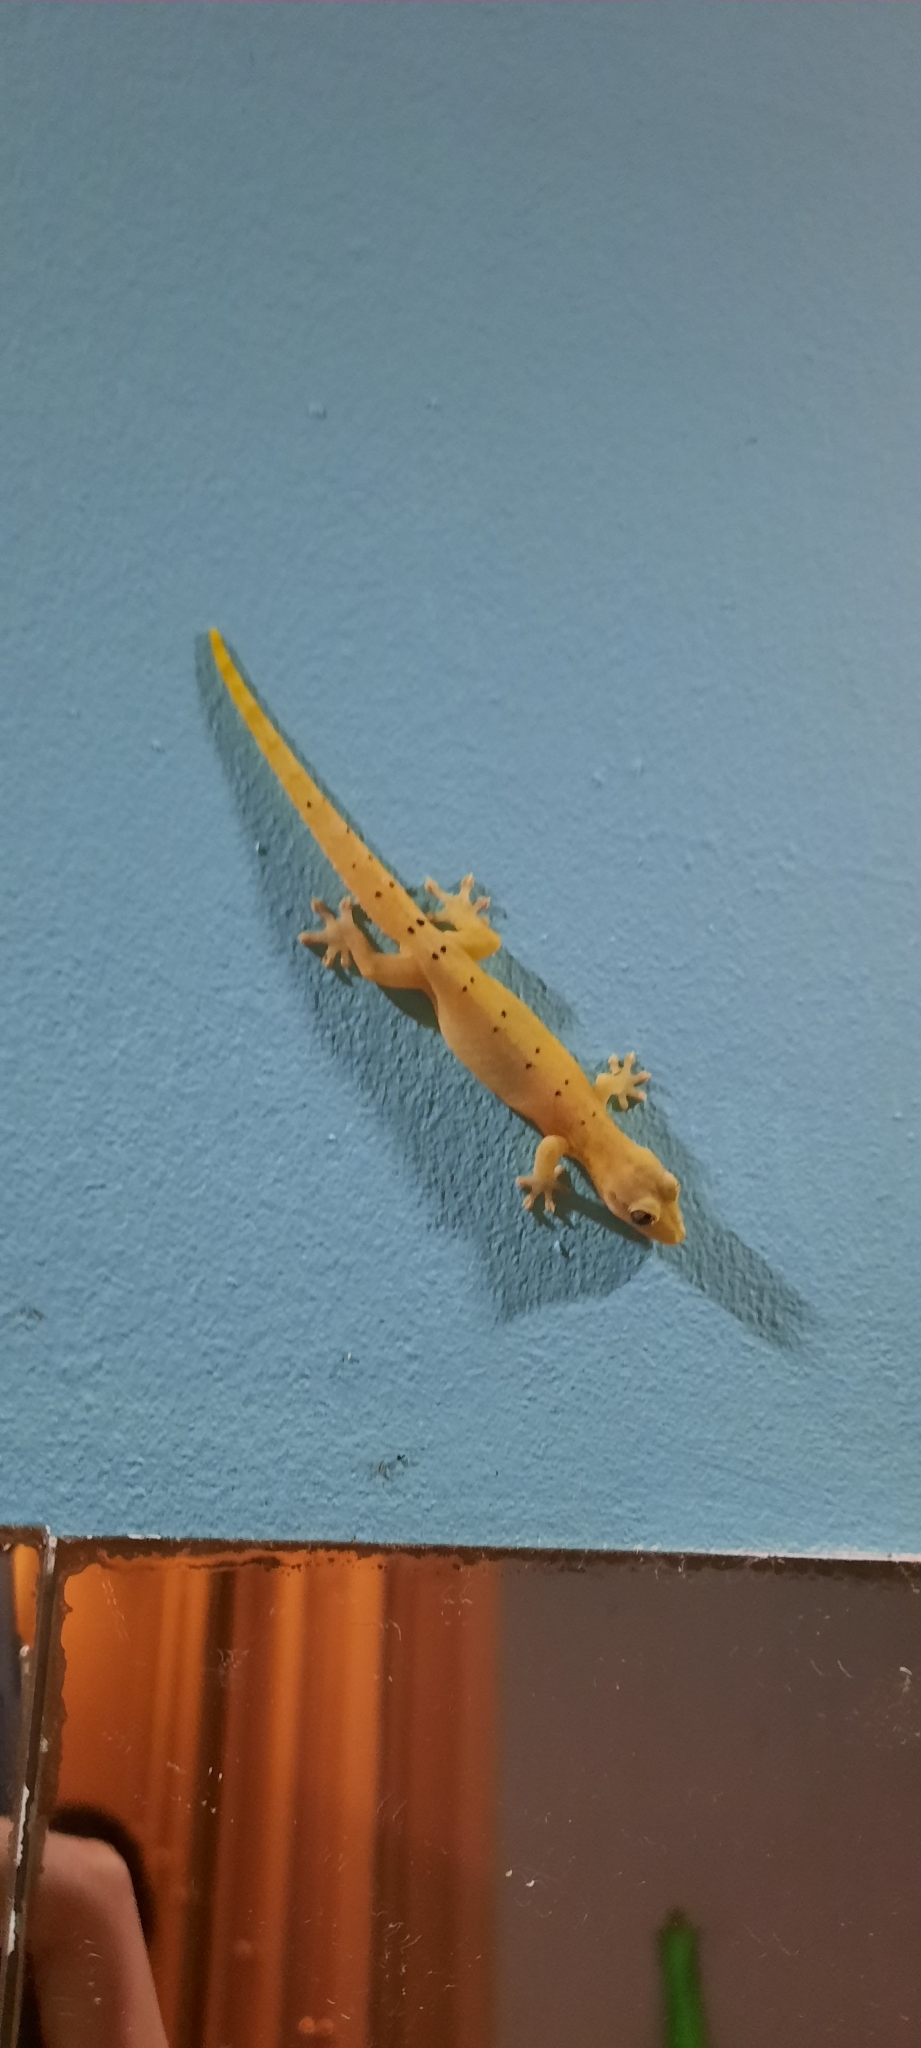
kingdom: Animalia
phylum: Chordata
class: Squamata
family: Gekkonidae
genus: Lepidodactylus
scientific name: Lepidodactylus lugubris
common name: Mourning gecko
